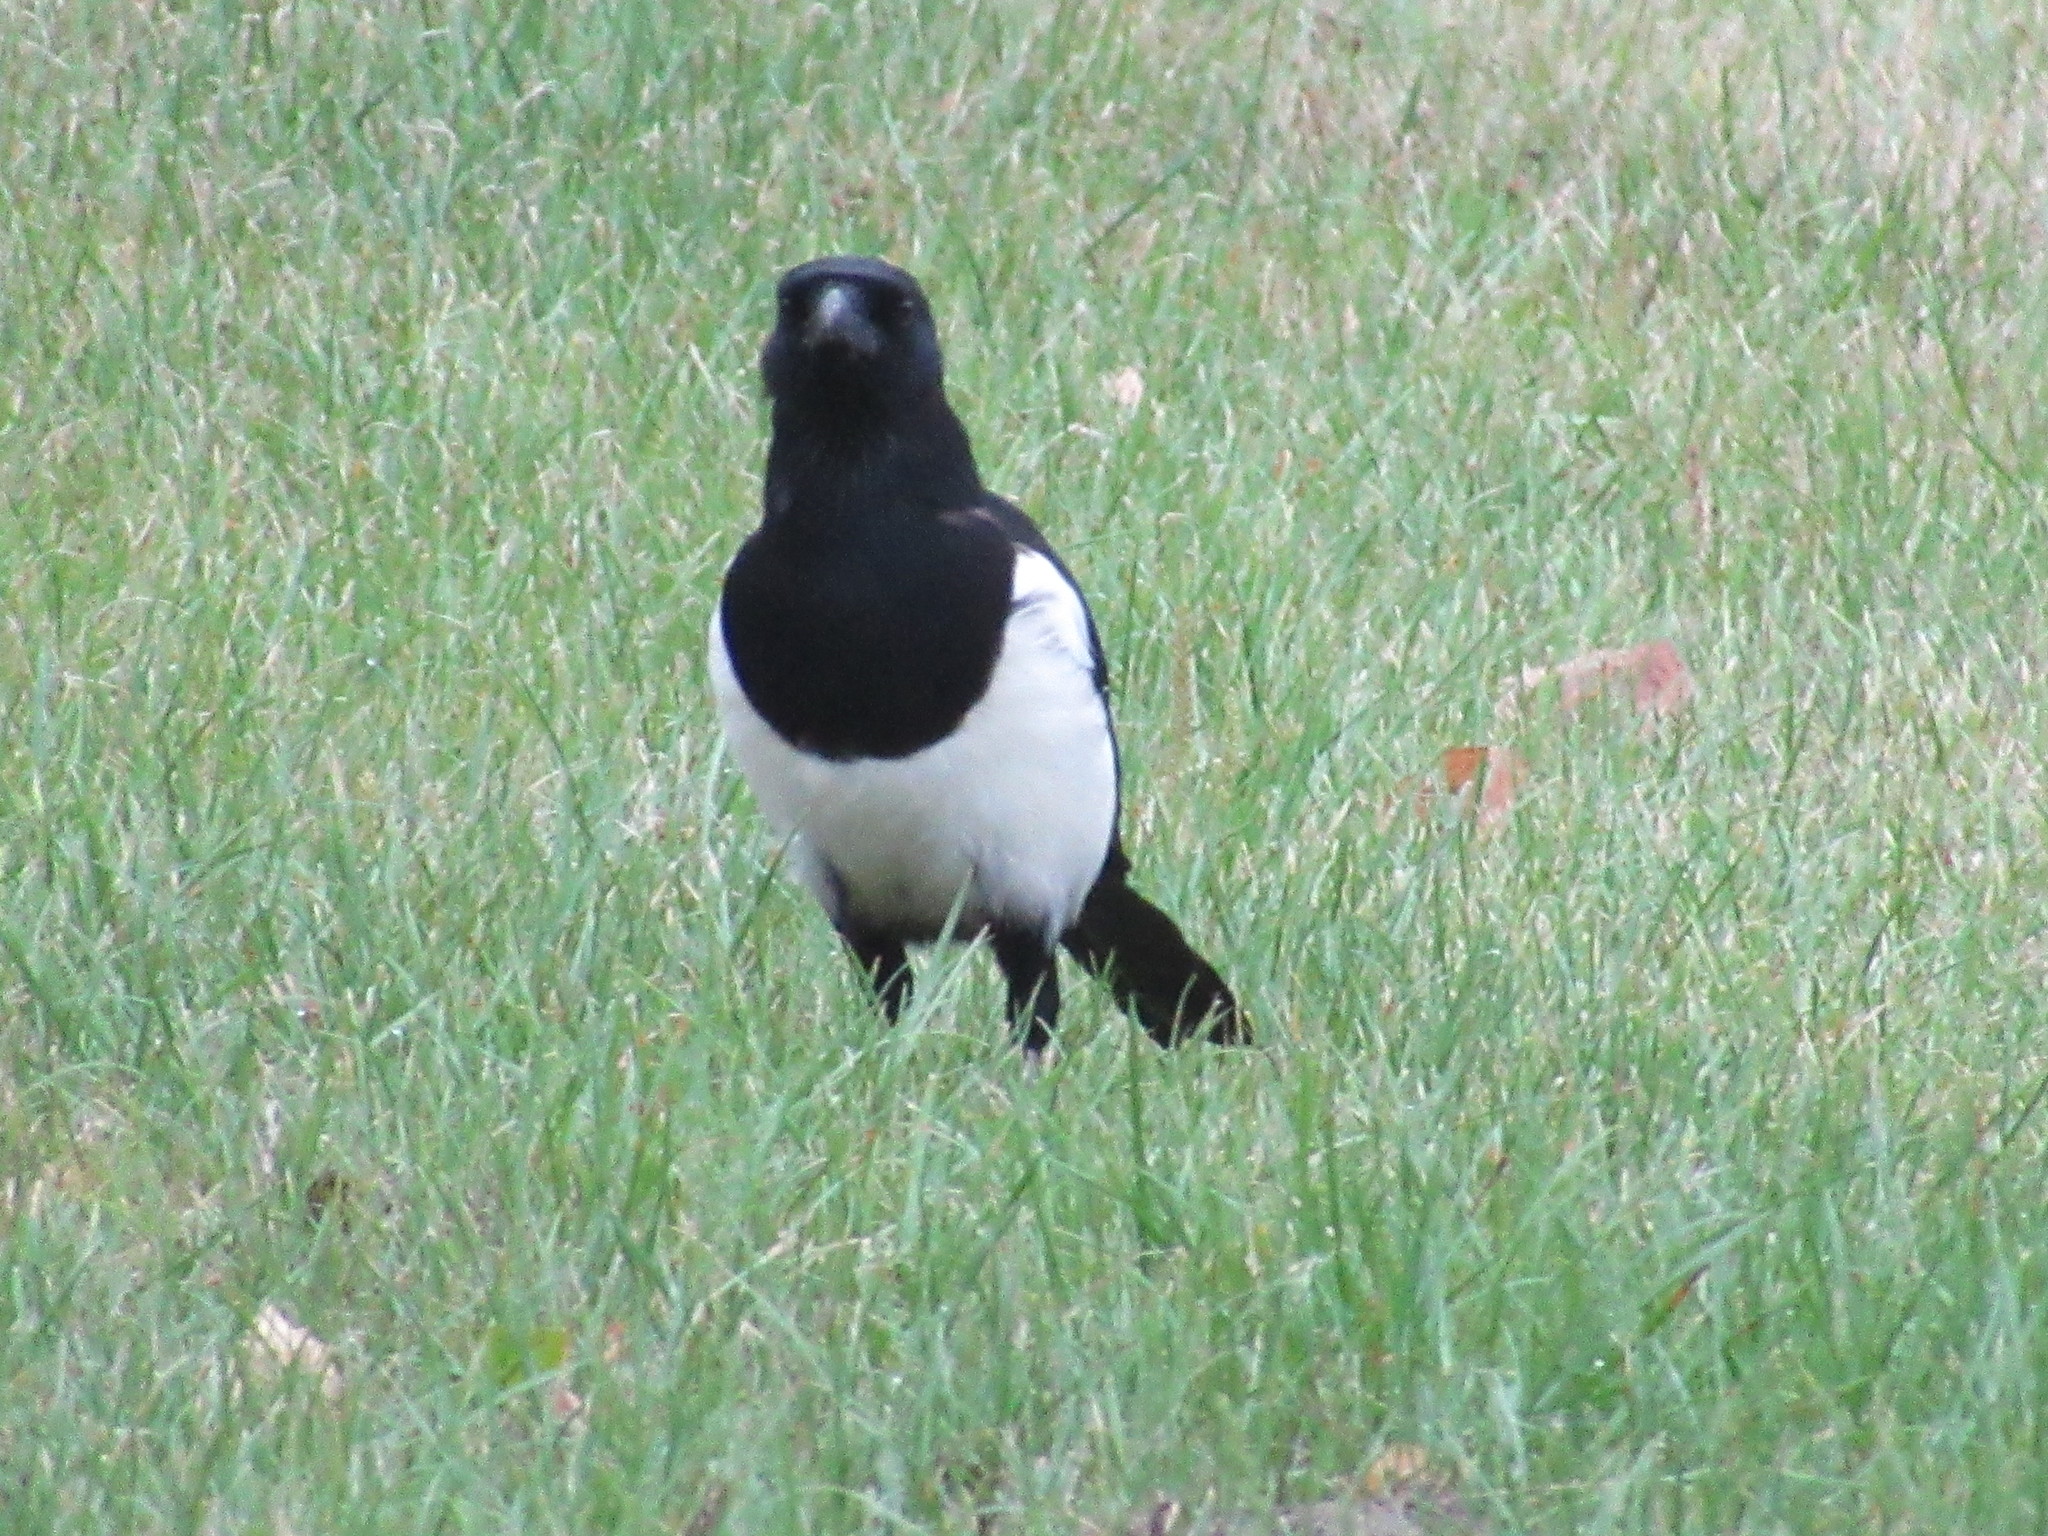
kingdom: Animalia
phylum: Chordata
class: Aves
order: Passeriformes
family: Corvidae
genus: Pica
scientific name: Pica pica
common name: Eurasian magpie
